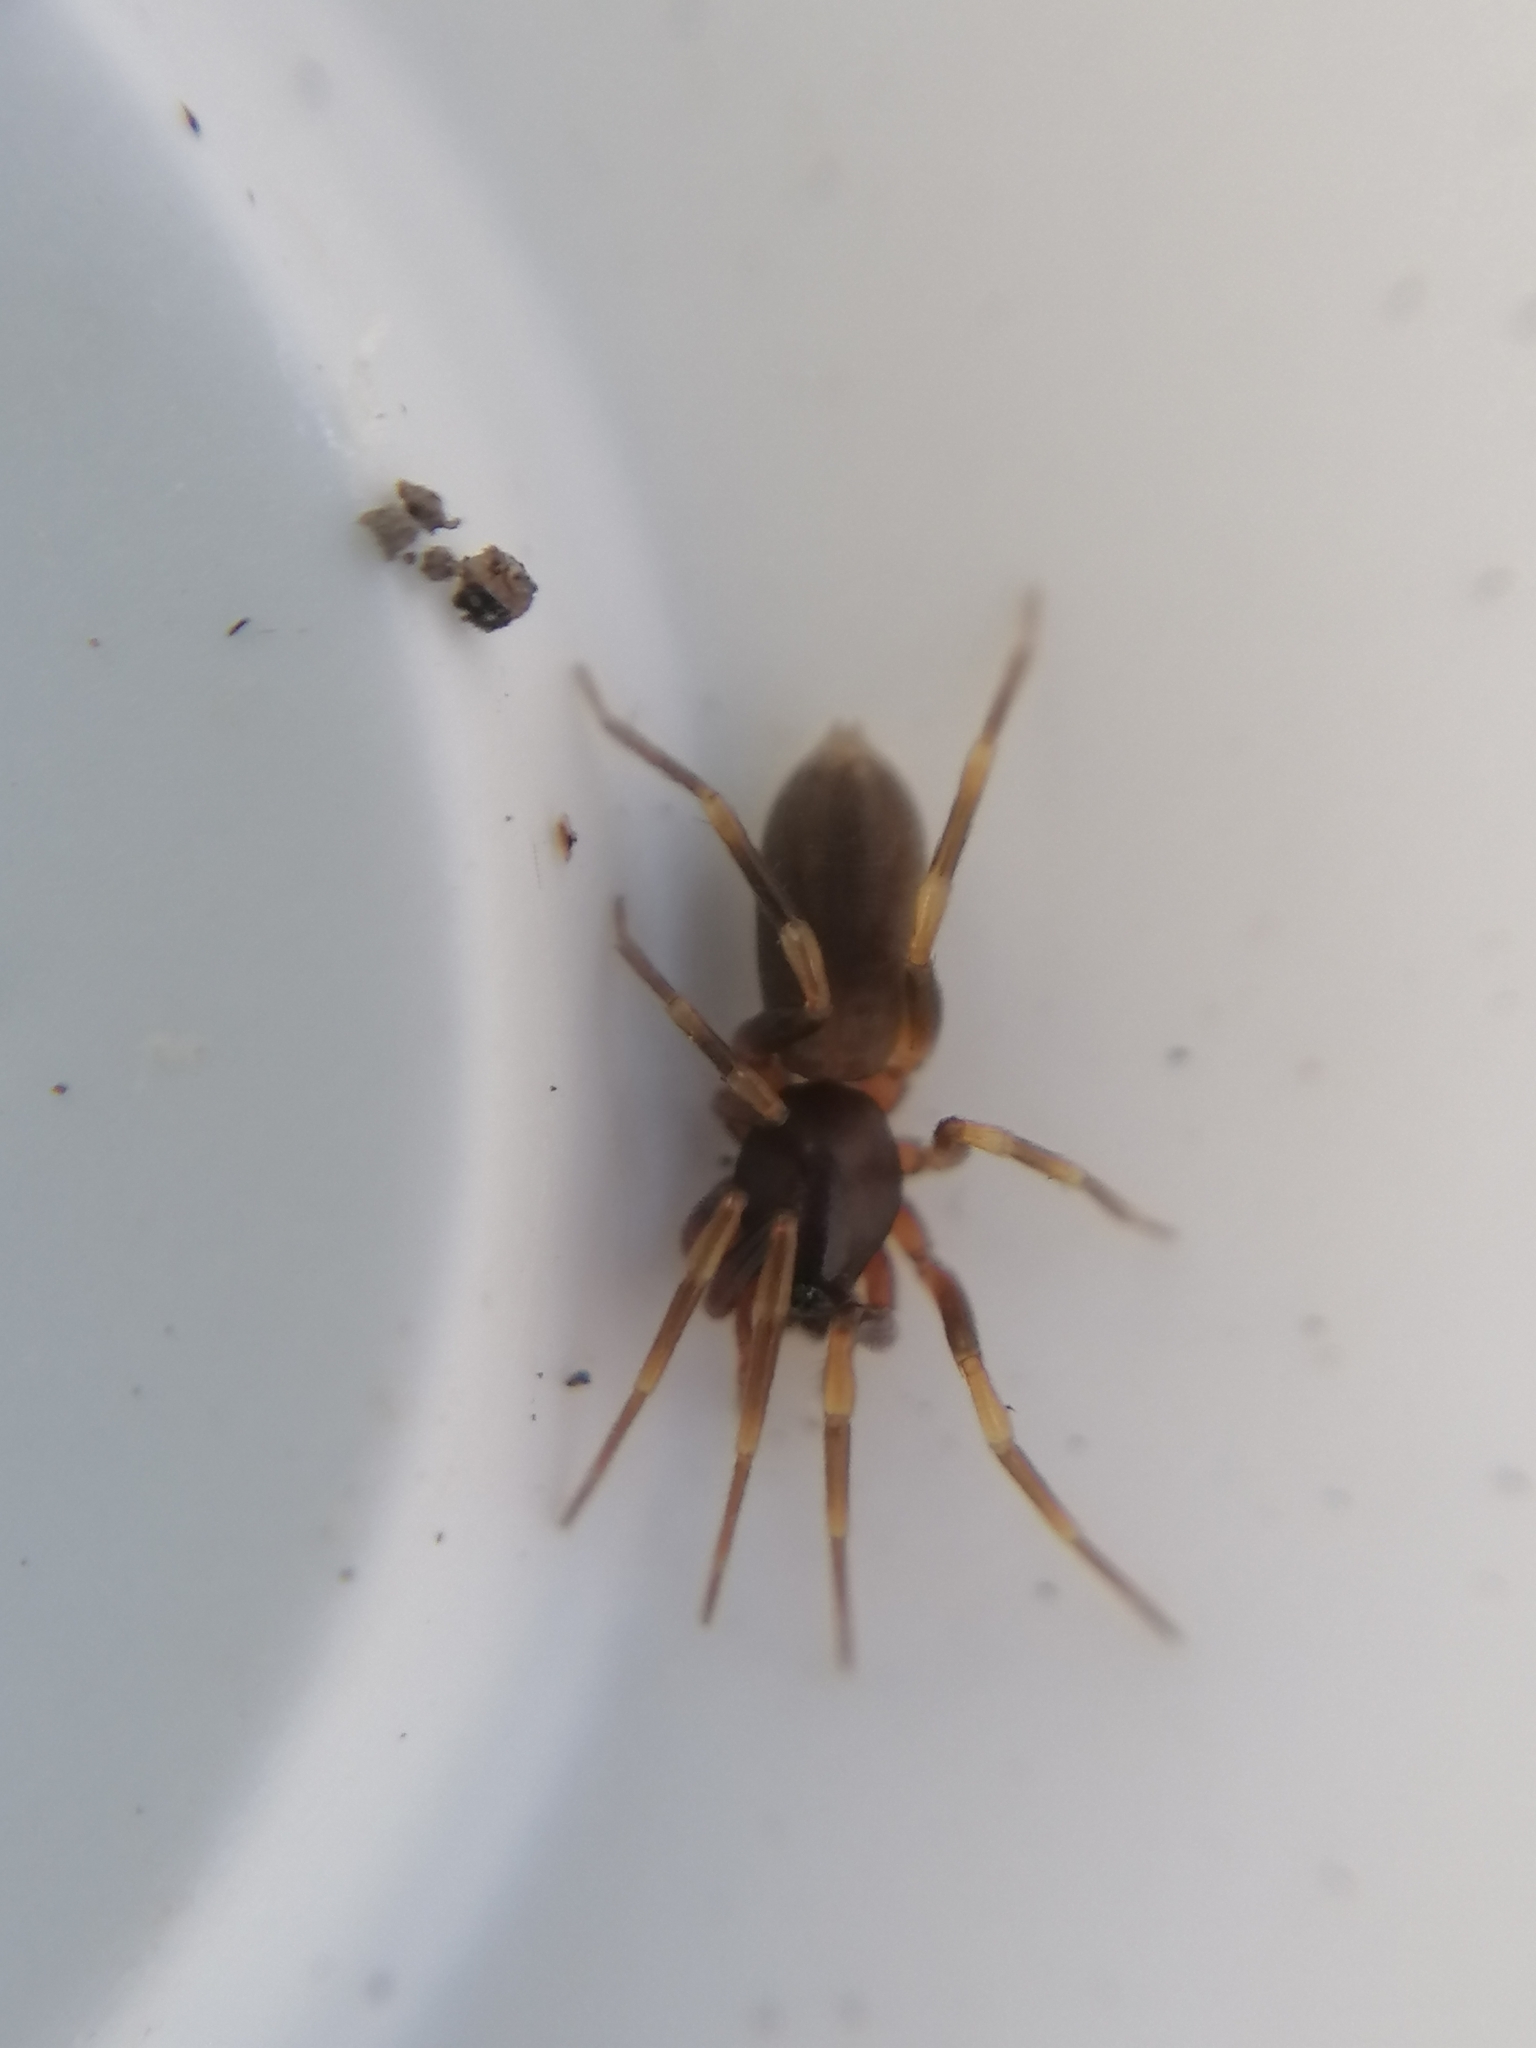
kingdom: Animalia
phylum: Arthropoda
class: Arachnida
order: Araneae
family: Dysderidae
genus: Harpactea
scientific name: Harpactea hombergi
